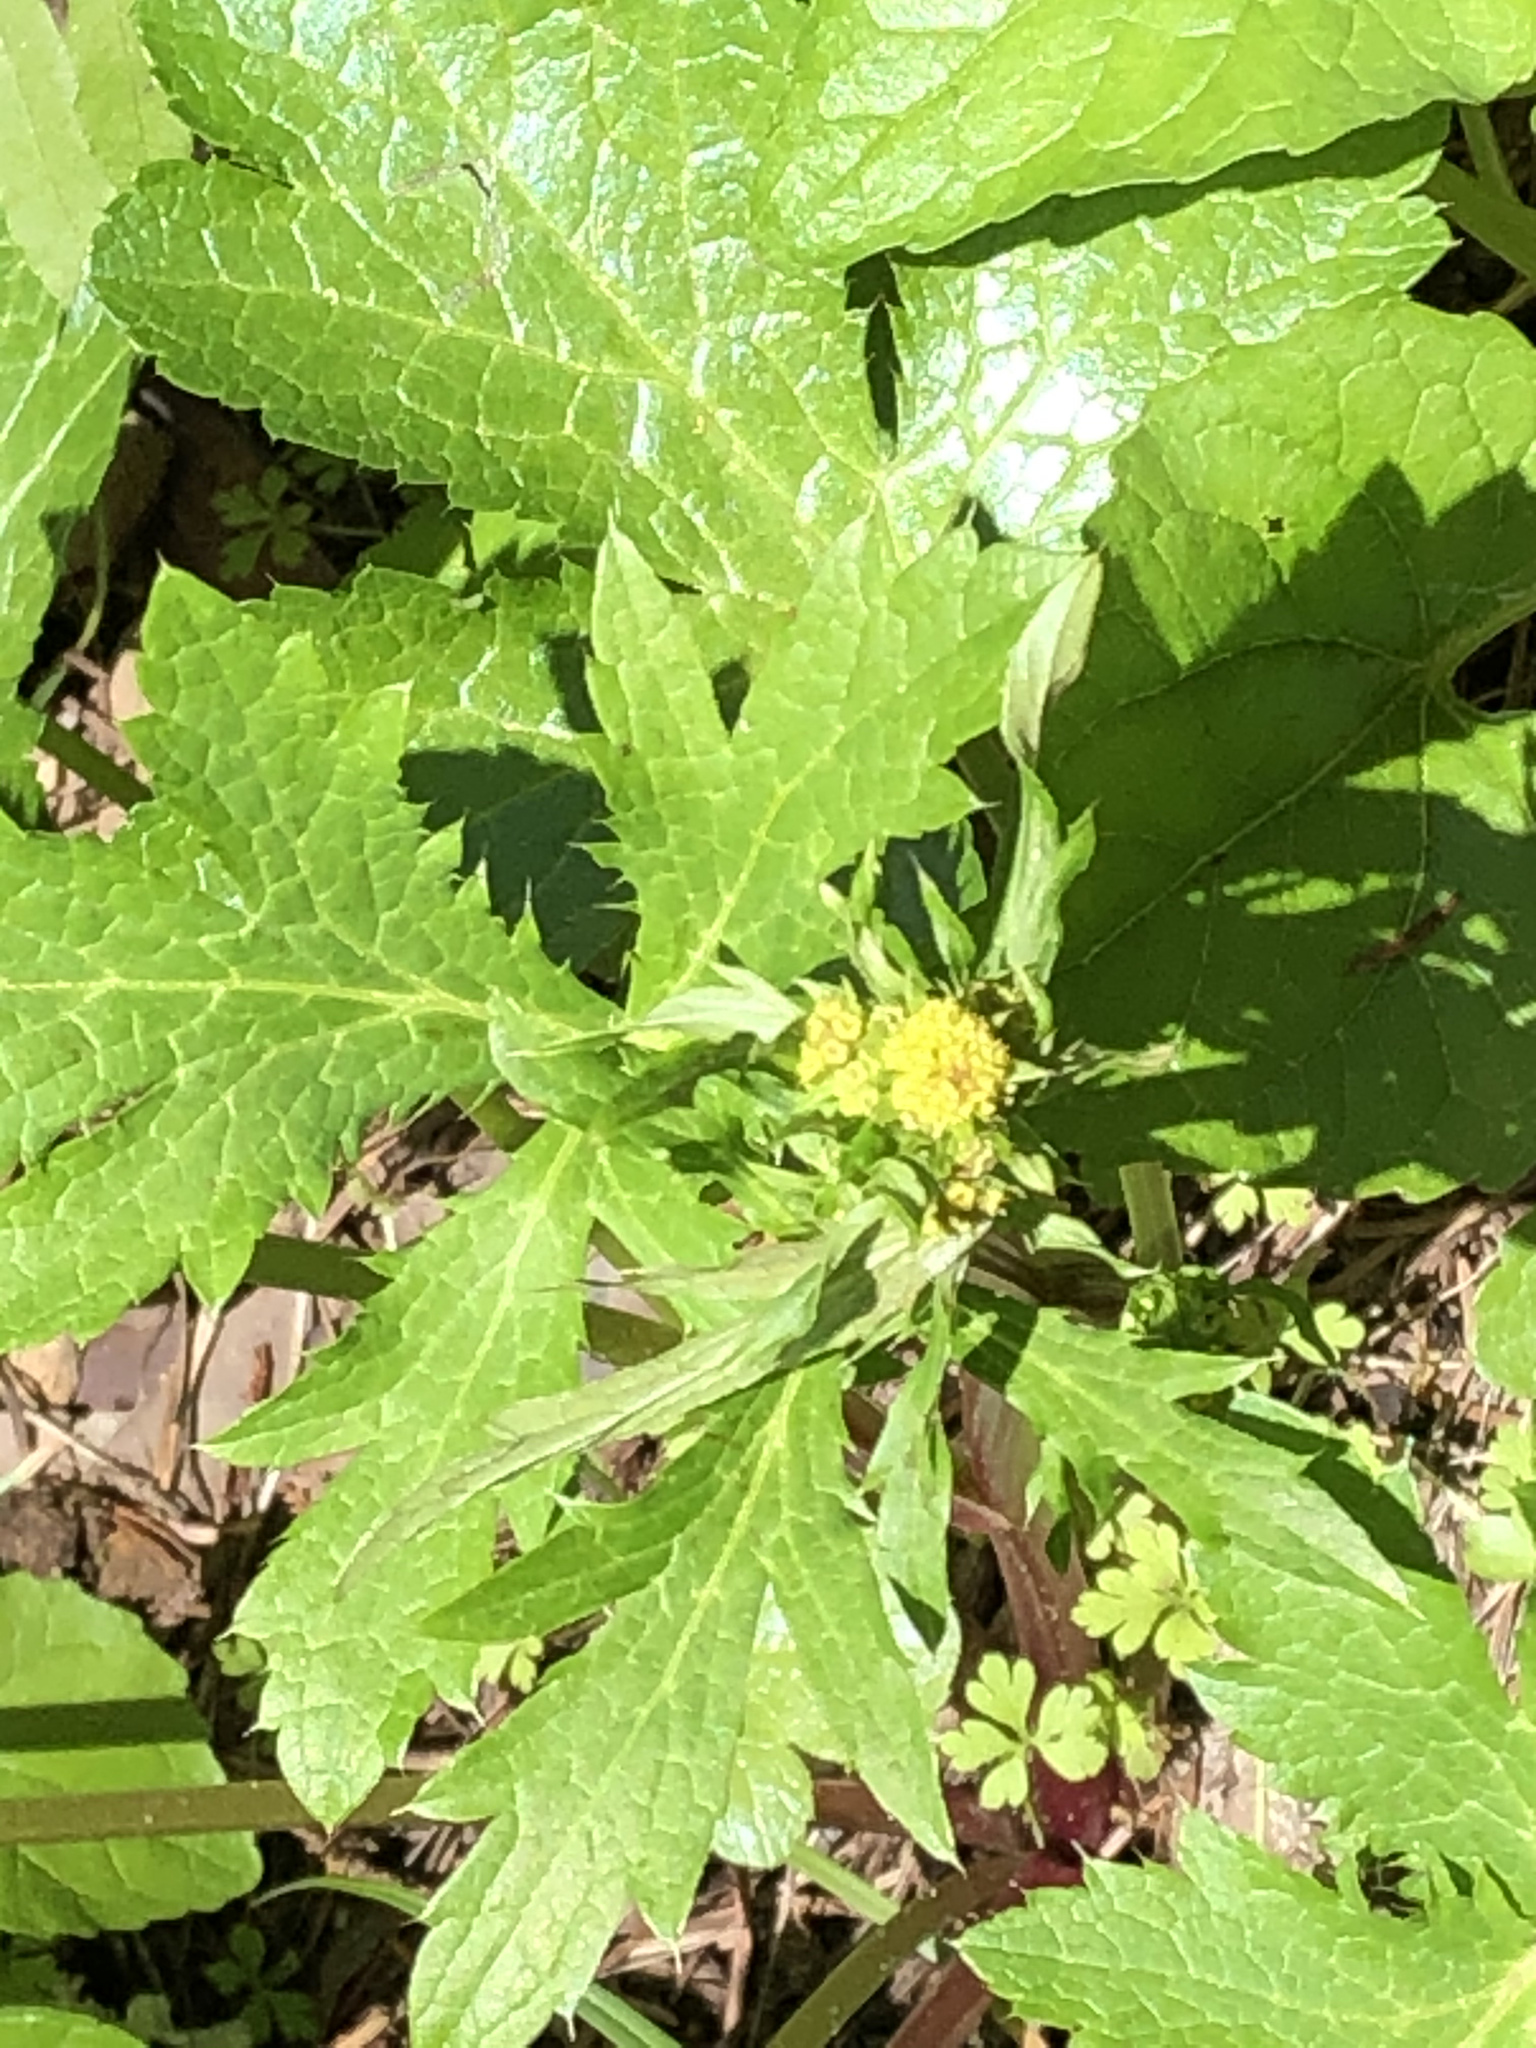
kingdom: Plantae
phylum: Tracheophyta
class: Magnoliopsida
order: Apiales
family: Apiaceae
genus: Sanicula
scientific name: Sanicula crassicaulis
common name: Western snakeroot
